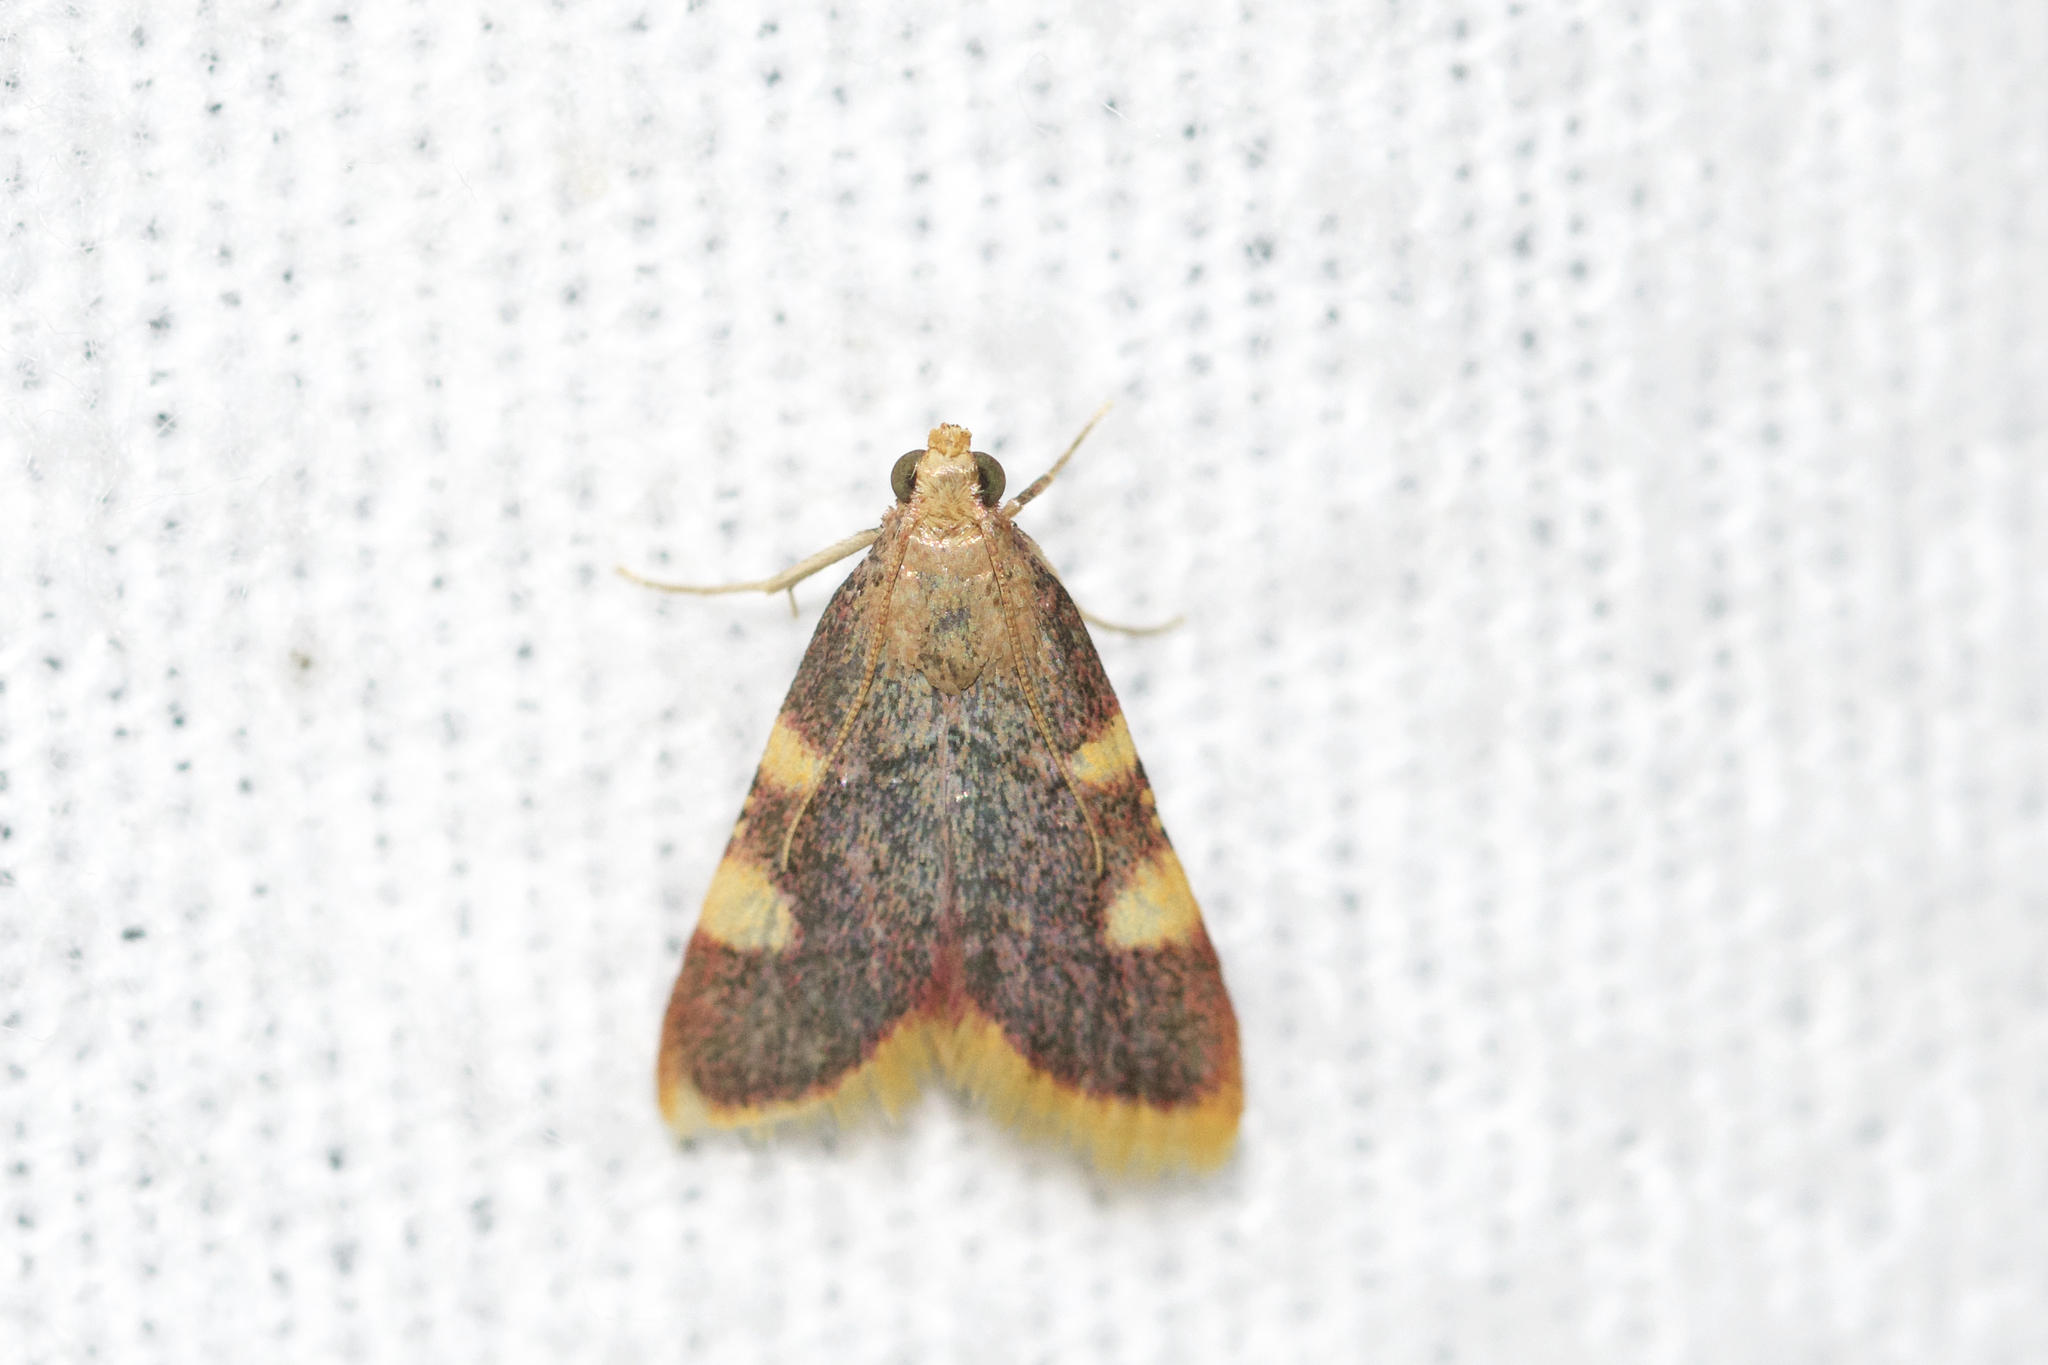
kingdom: Animalia
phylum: Arthropoda
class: Insecta
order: Lepidoptera
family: Pyralidae
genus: Hypsopygia
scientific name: Hypsopygia costalis
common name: Gold triangle
